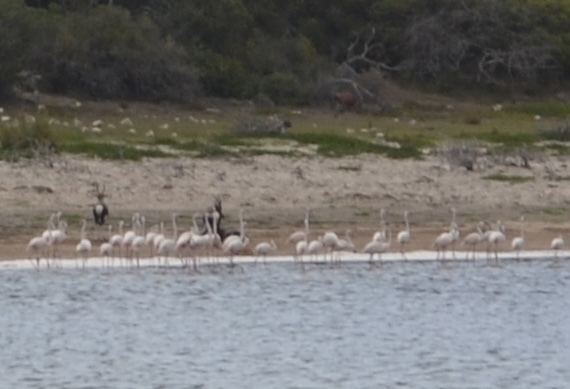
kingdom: Animalia
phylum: Chordata
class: Aves
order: Phoenicopteriformes
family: Phoenicopteridae
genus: Phoenicopterus
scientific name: Phoenicopterus roseus
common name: Greater flamingo
